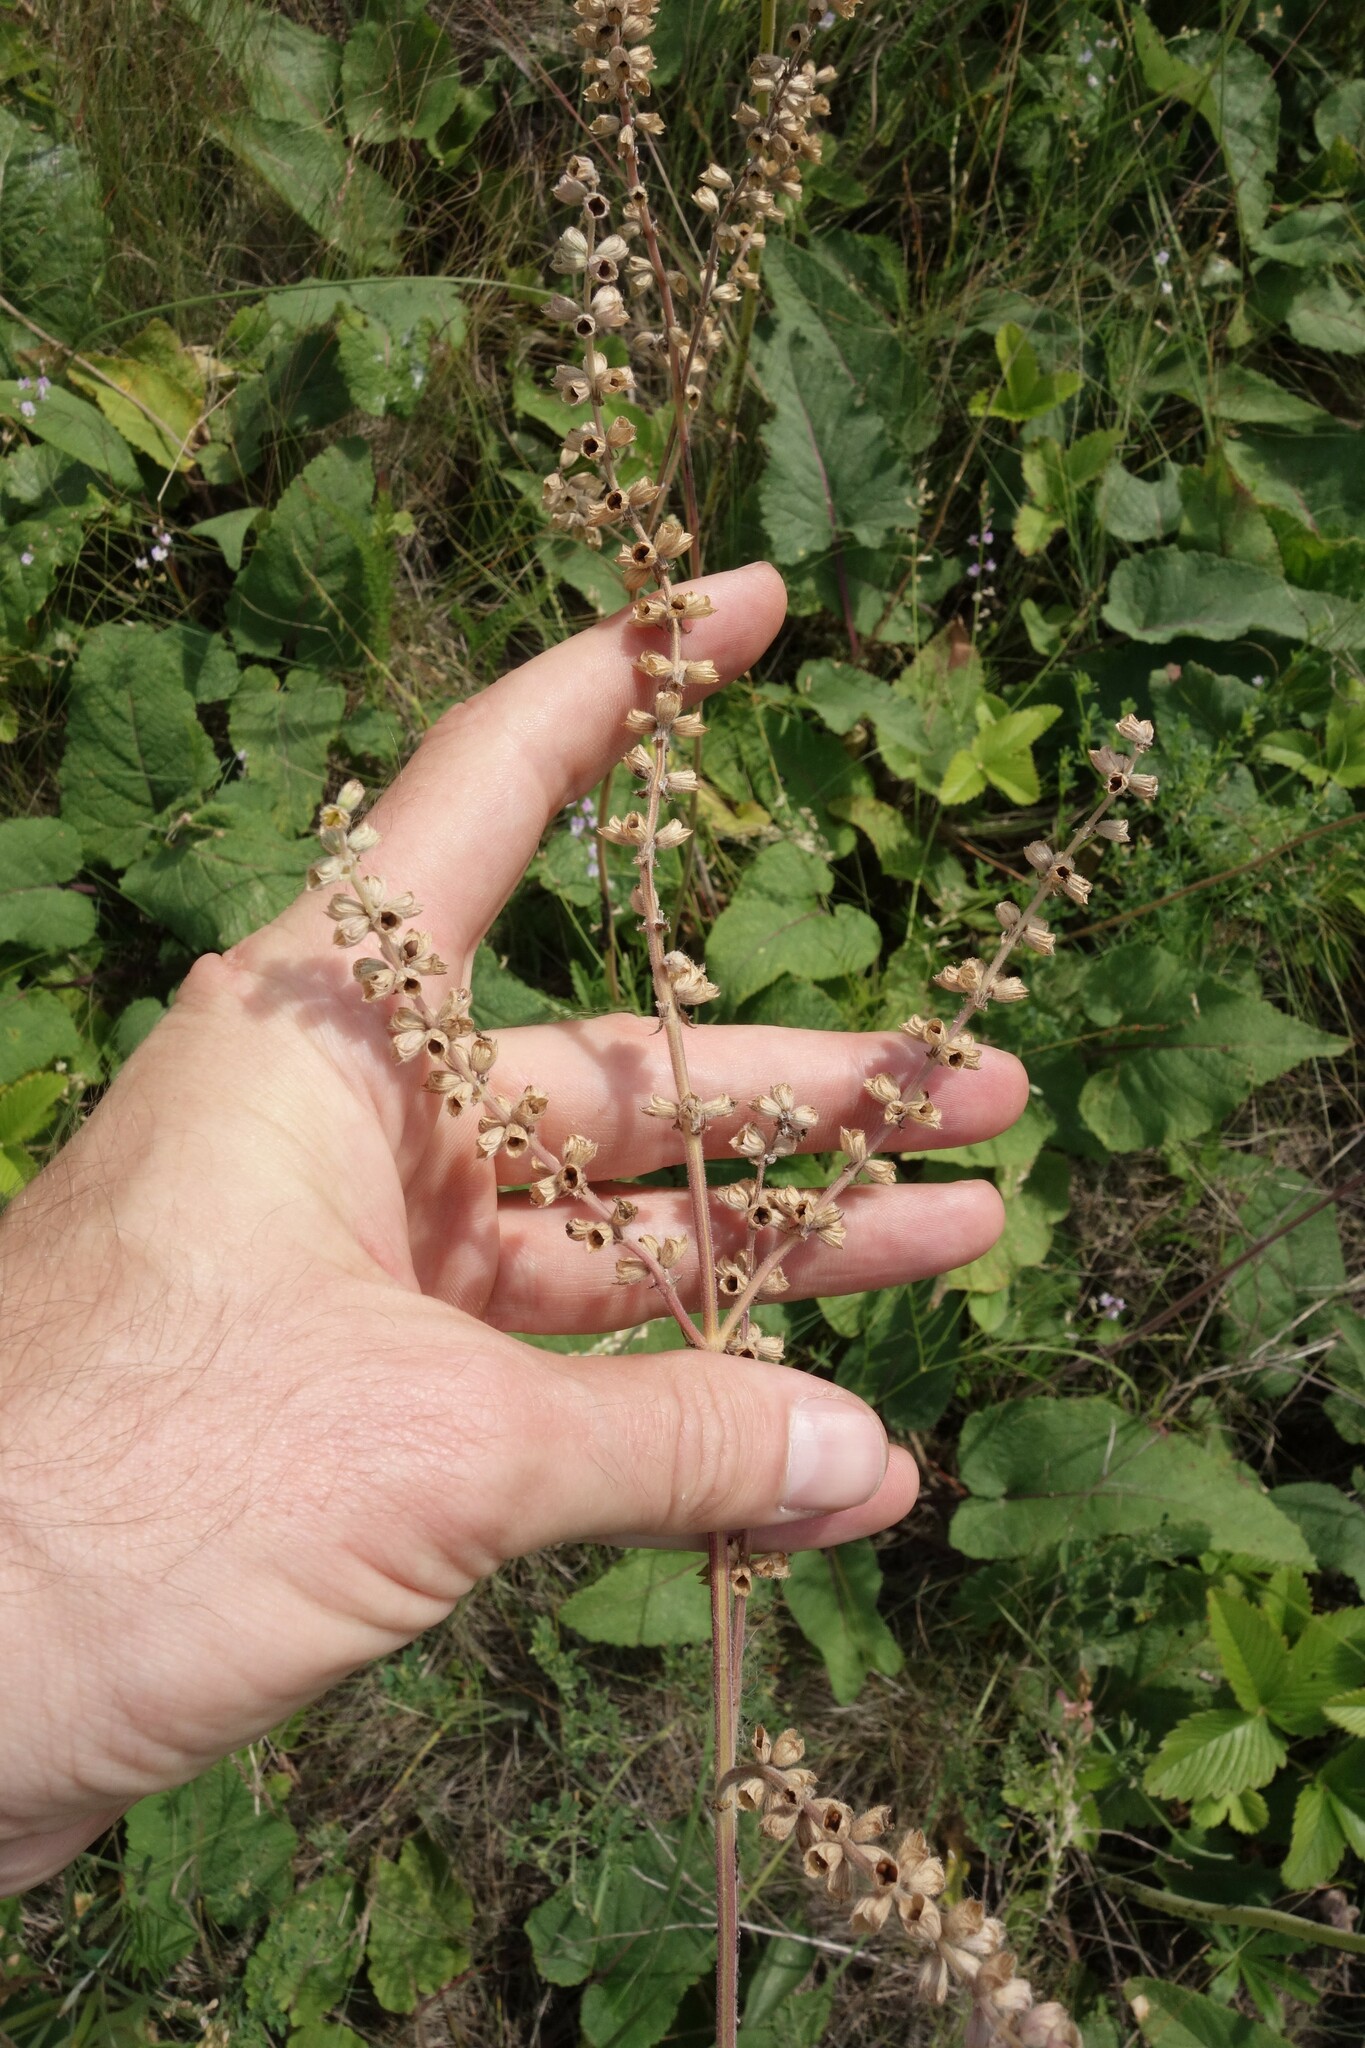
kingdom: Plantae
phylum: Tracheophyta
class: Magnoliopsida
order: Lamiales
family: Lamiaceae
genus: Salvia
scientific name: Salvia nutans
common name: Nodding sage
